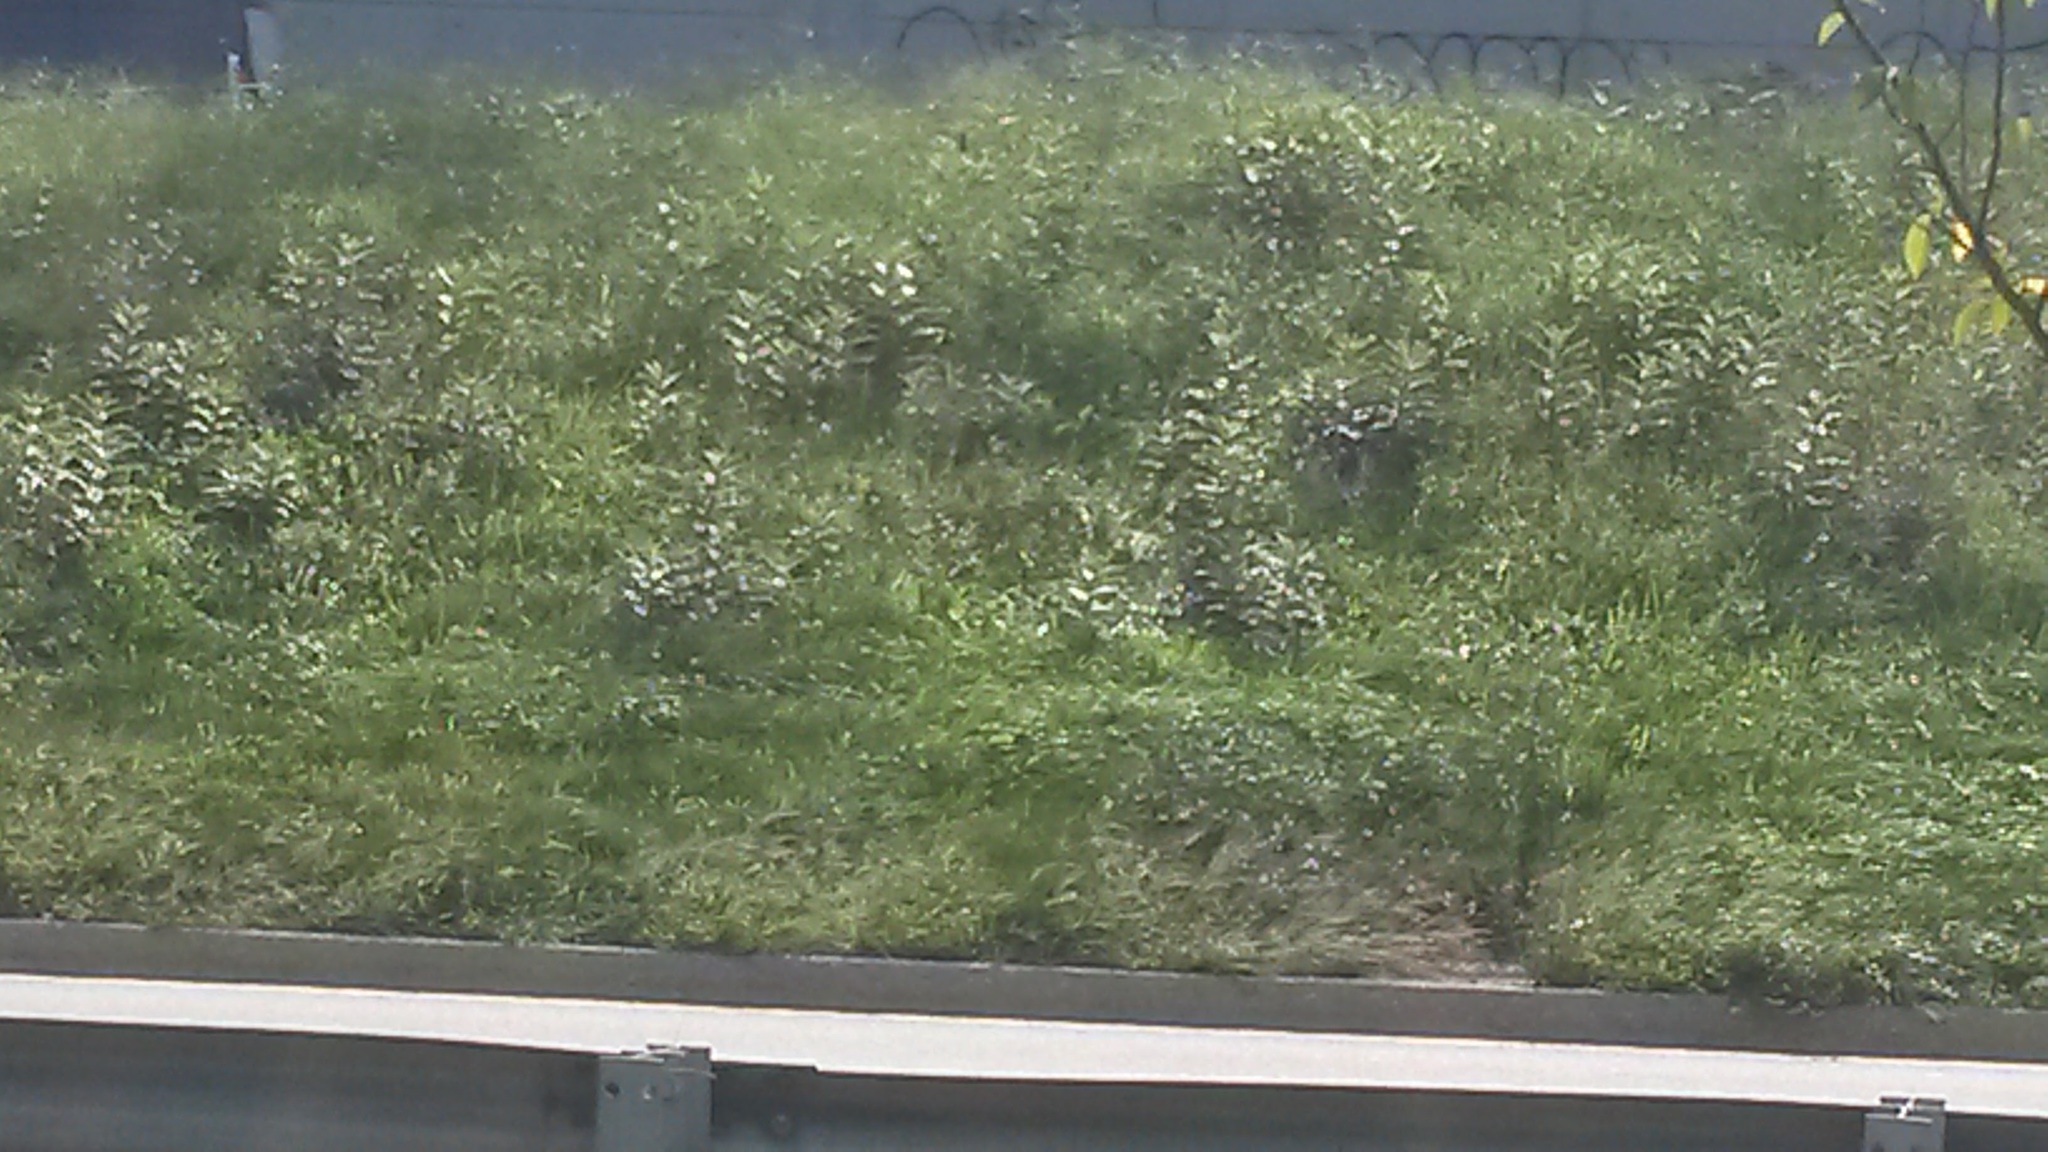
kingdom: Plantae
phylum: Tracheophyta
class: Magnoliopsida
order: Gentianales
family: Apocynaceae
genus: Asclepias
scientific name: Asclepias syriaca
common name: Common milkweed
